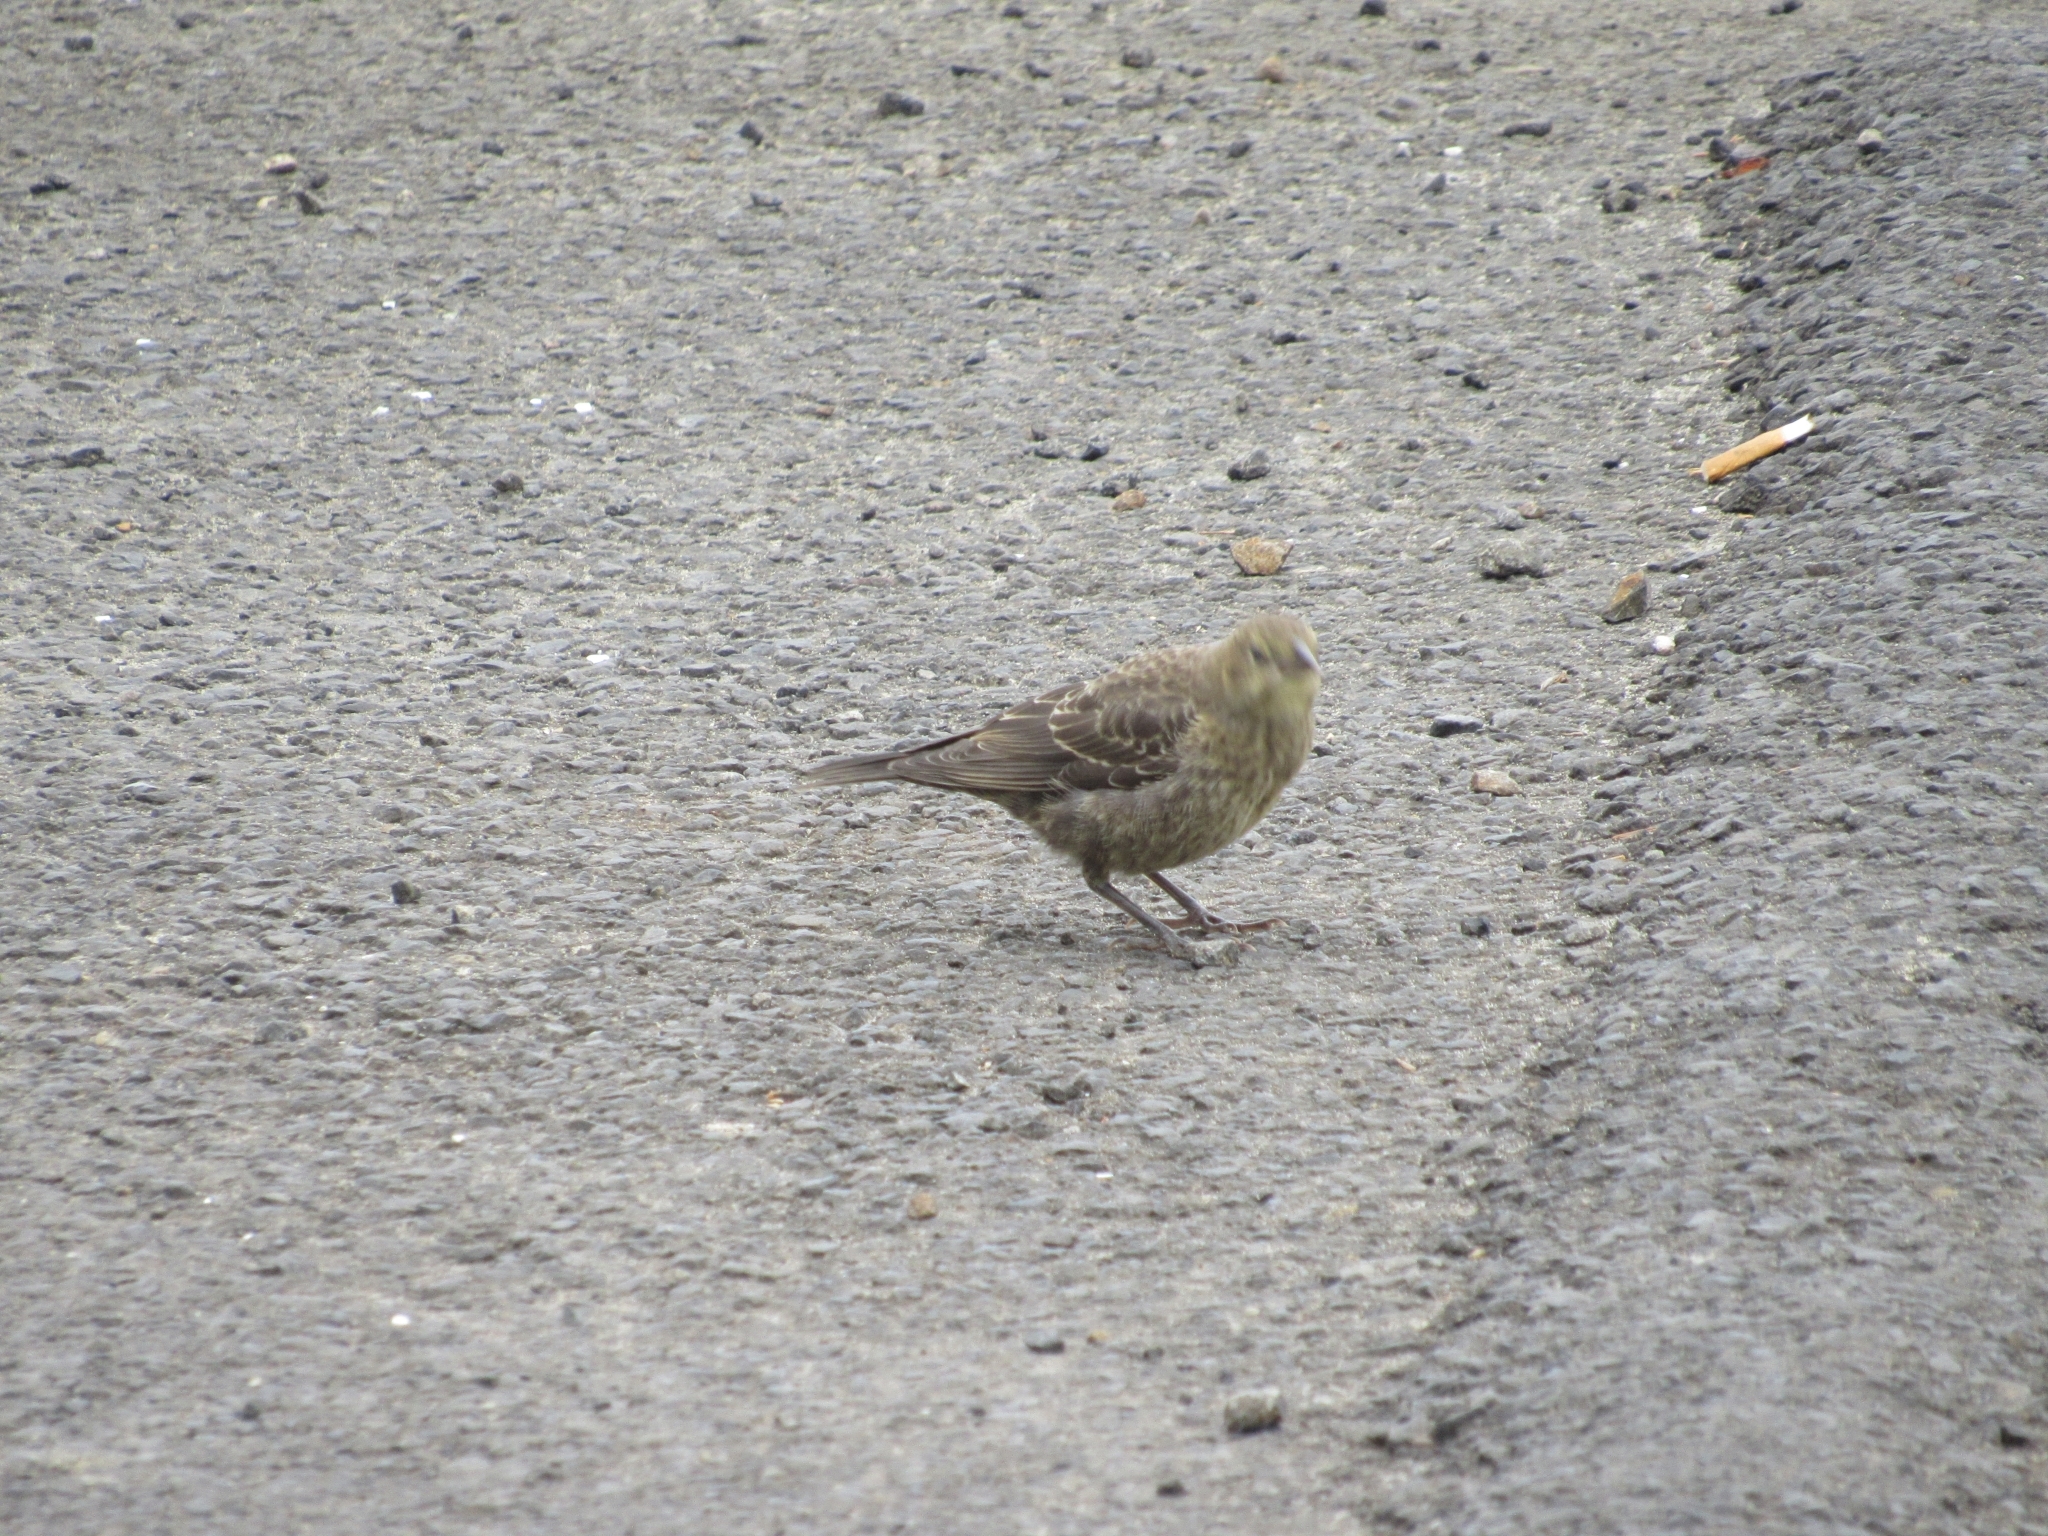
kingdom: Animalia
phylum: Chordata
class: Aves
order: Passeriformes
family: Icteridae
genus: Molothrus
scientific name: Molothrus ater
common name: Brown-headed cowbird
